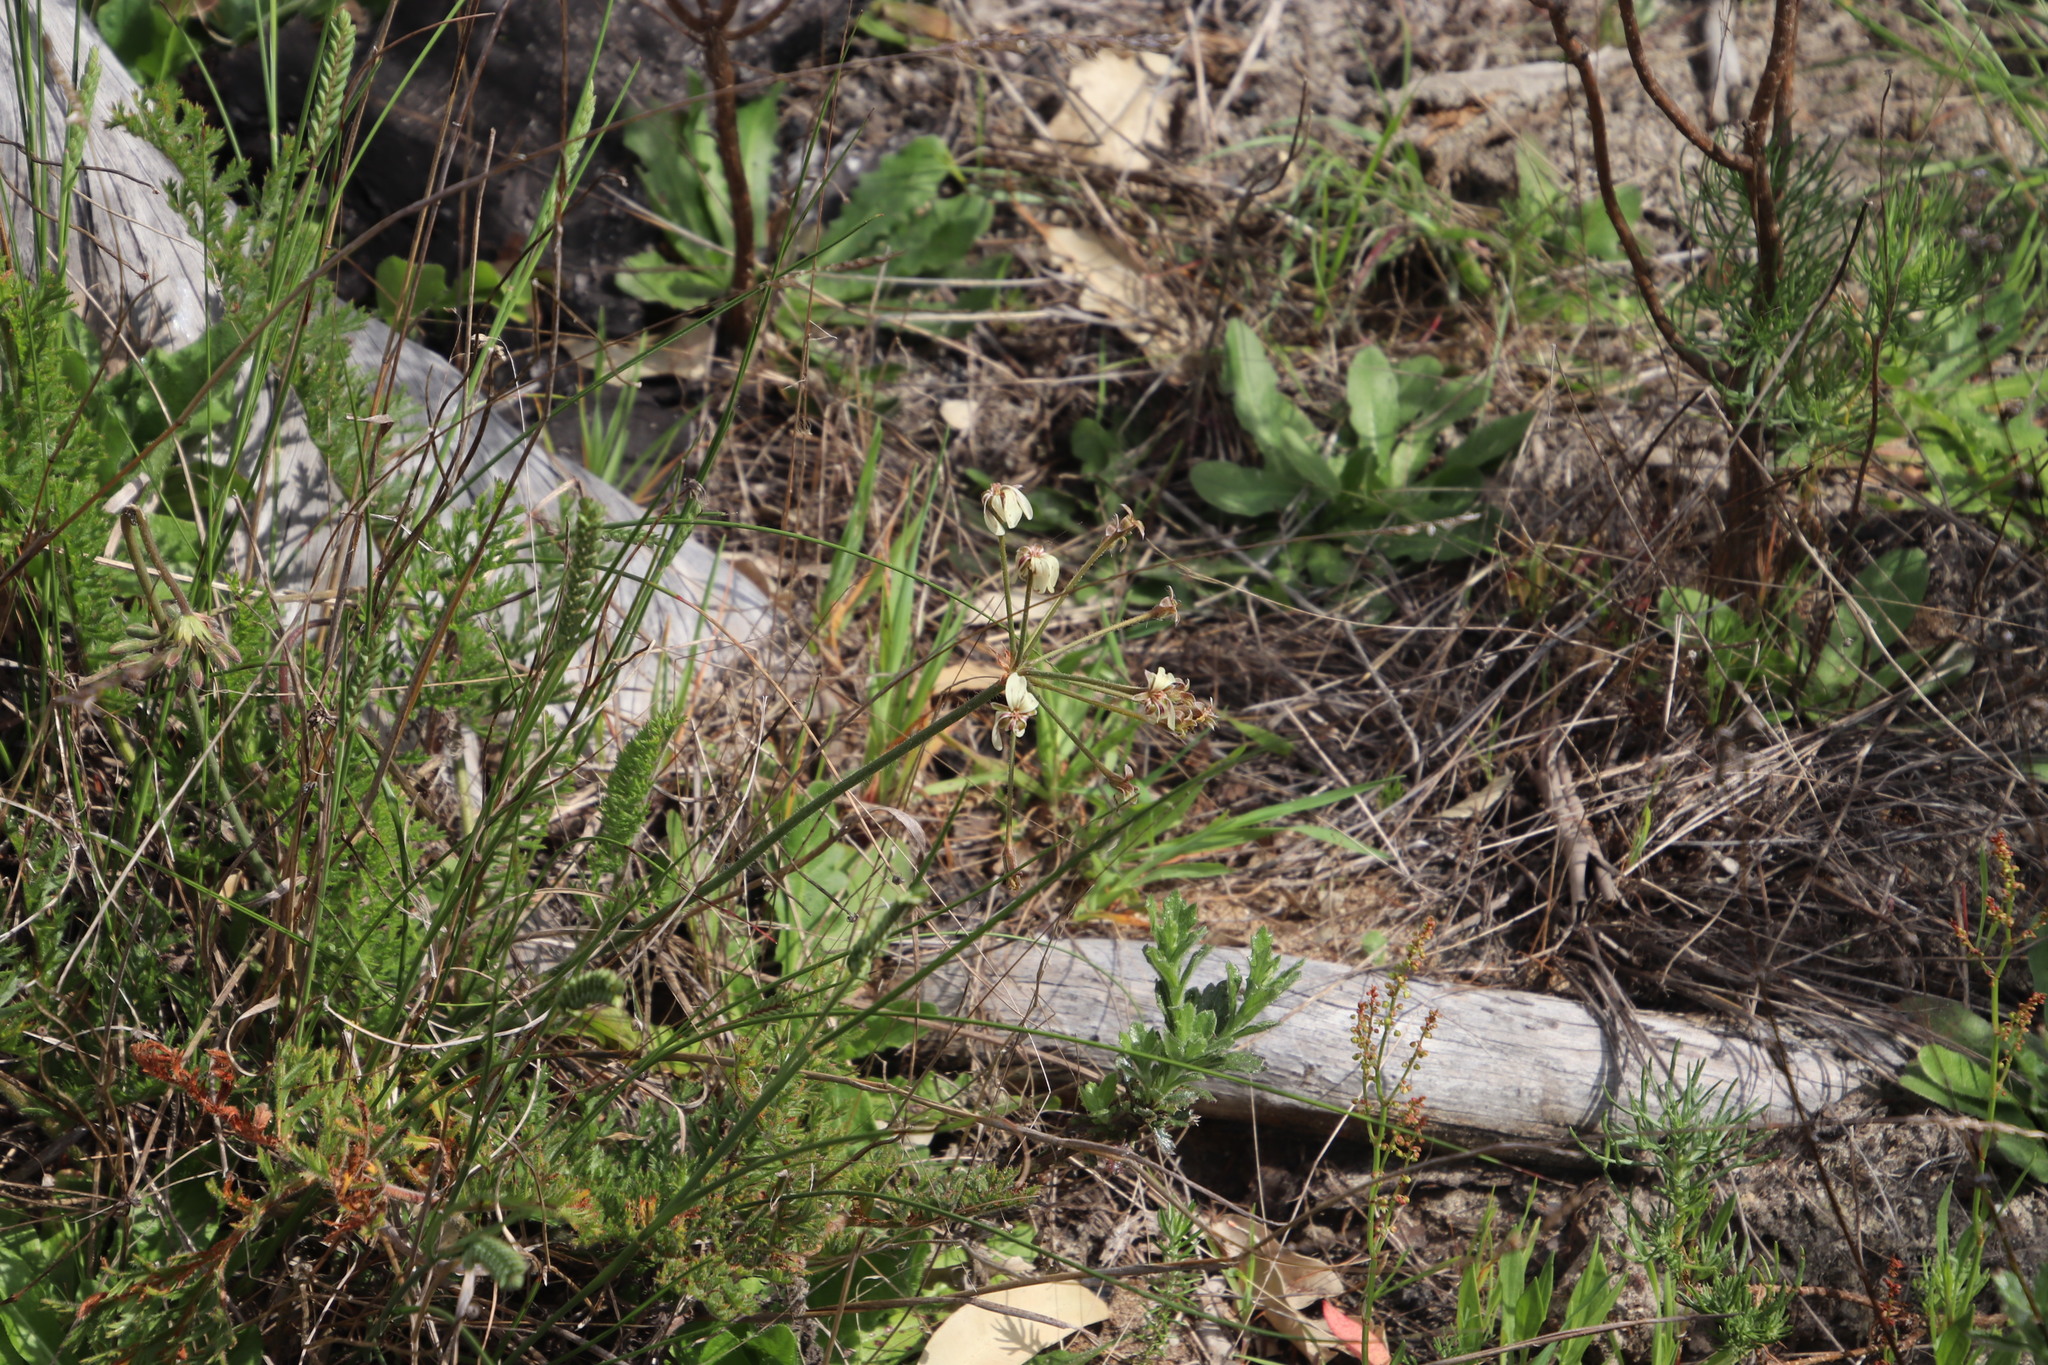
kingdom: Plantae
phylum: Tracheophyta
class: Magnoliopsida
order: Geraniales
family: Geraniaceae
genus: Pelargonium
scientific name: Pelargonium triste
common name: Night-scent pelargonium
